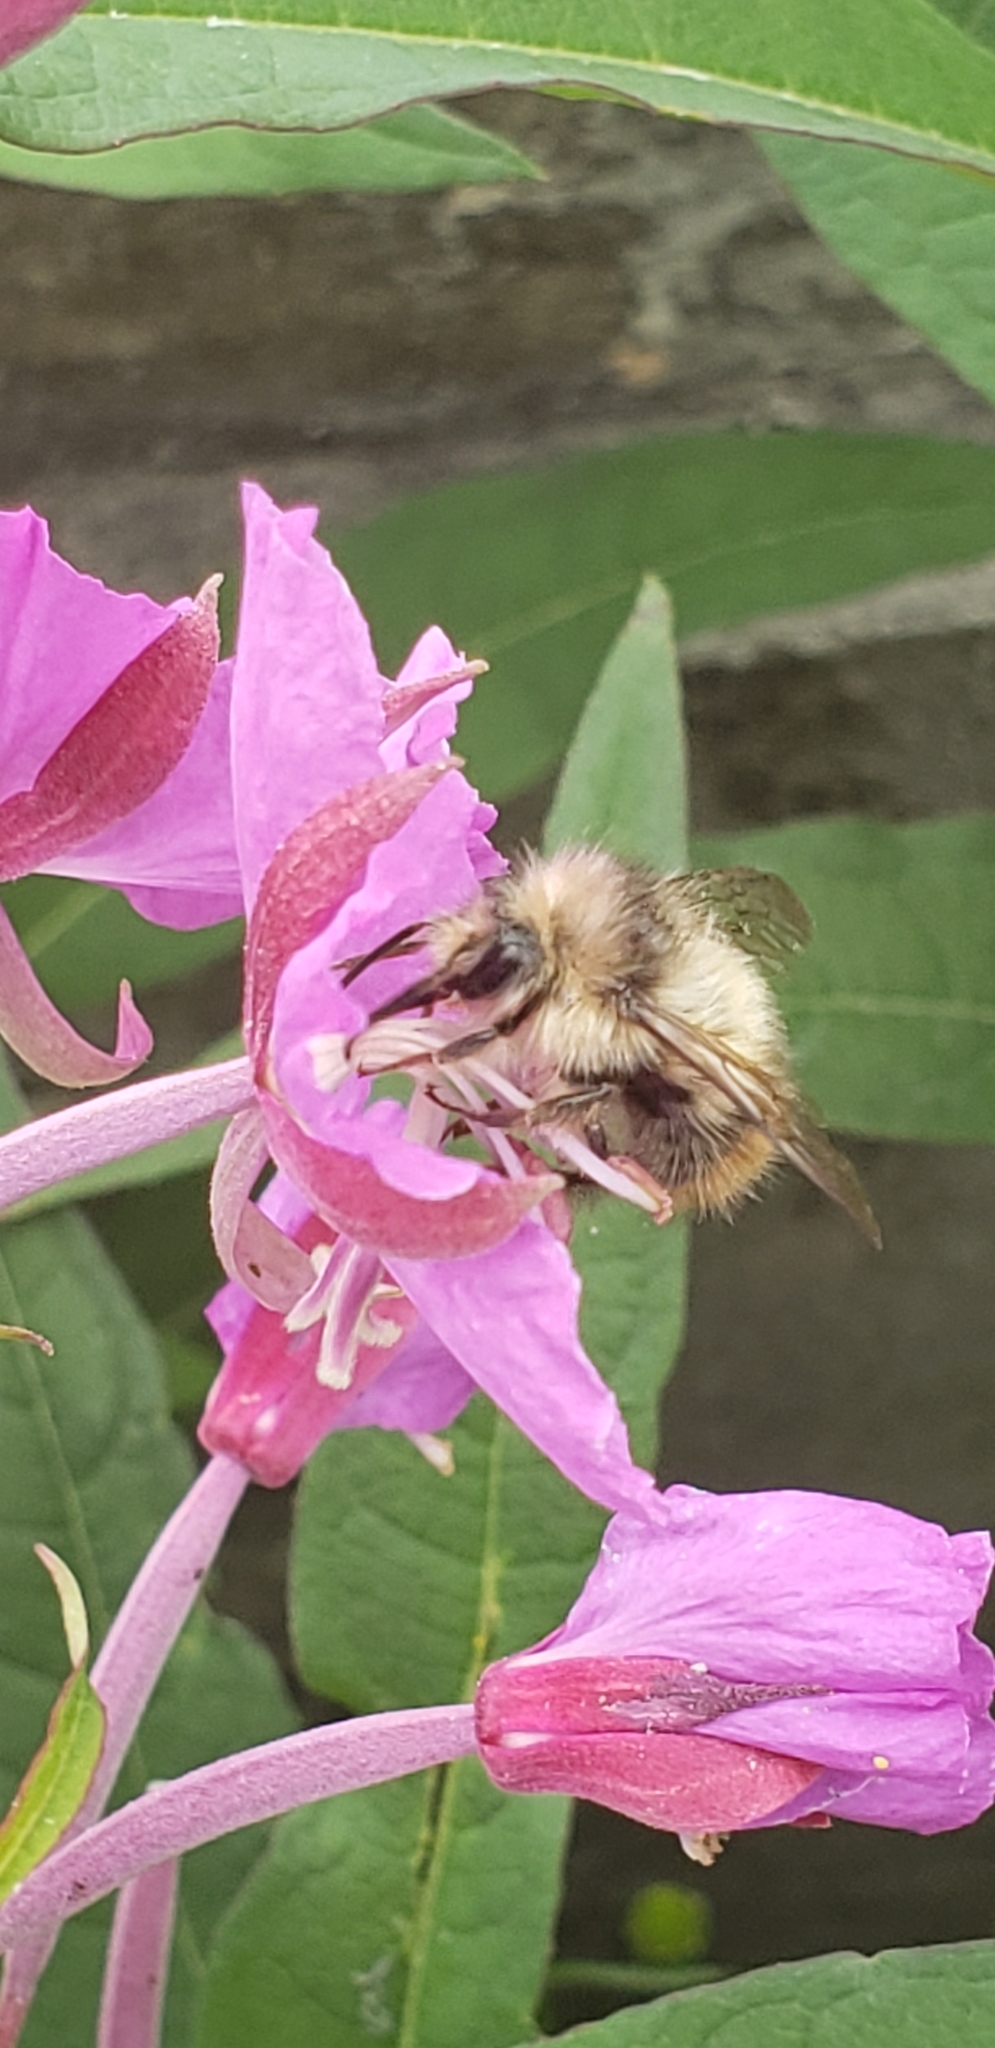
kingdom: Animalia
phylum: Arthropoda
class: Insecta
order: Hymenoptera
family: Apidae
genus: Bombus
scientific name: Bombus mixtus
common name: Fuzzy-horned bumble bee
